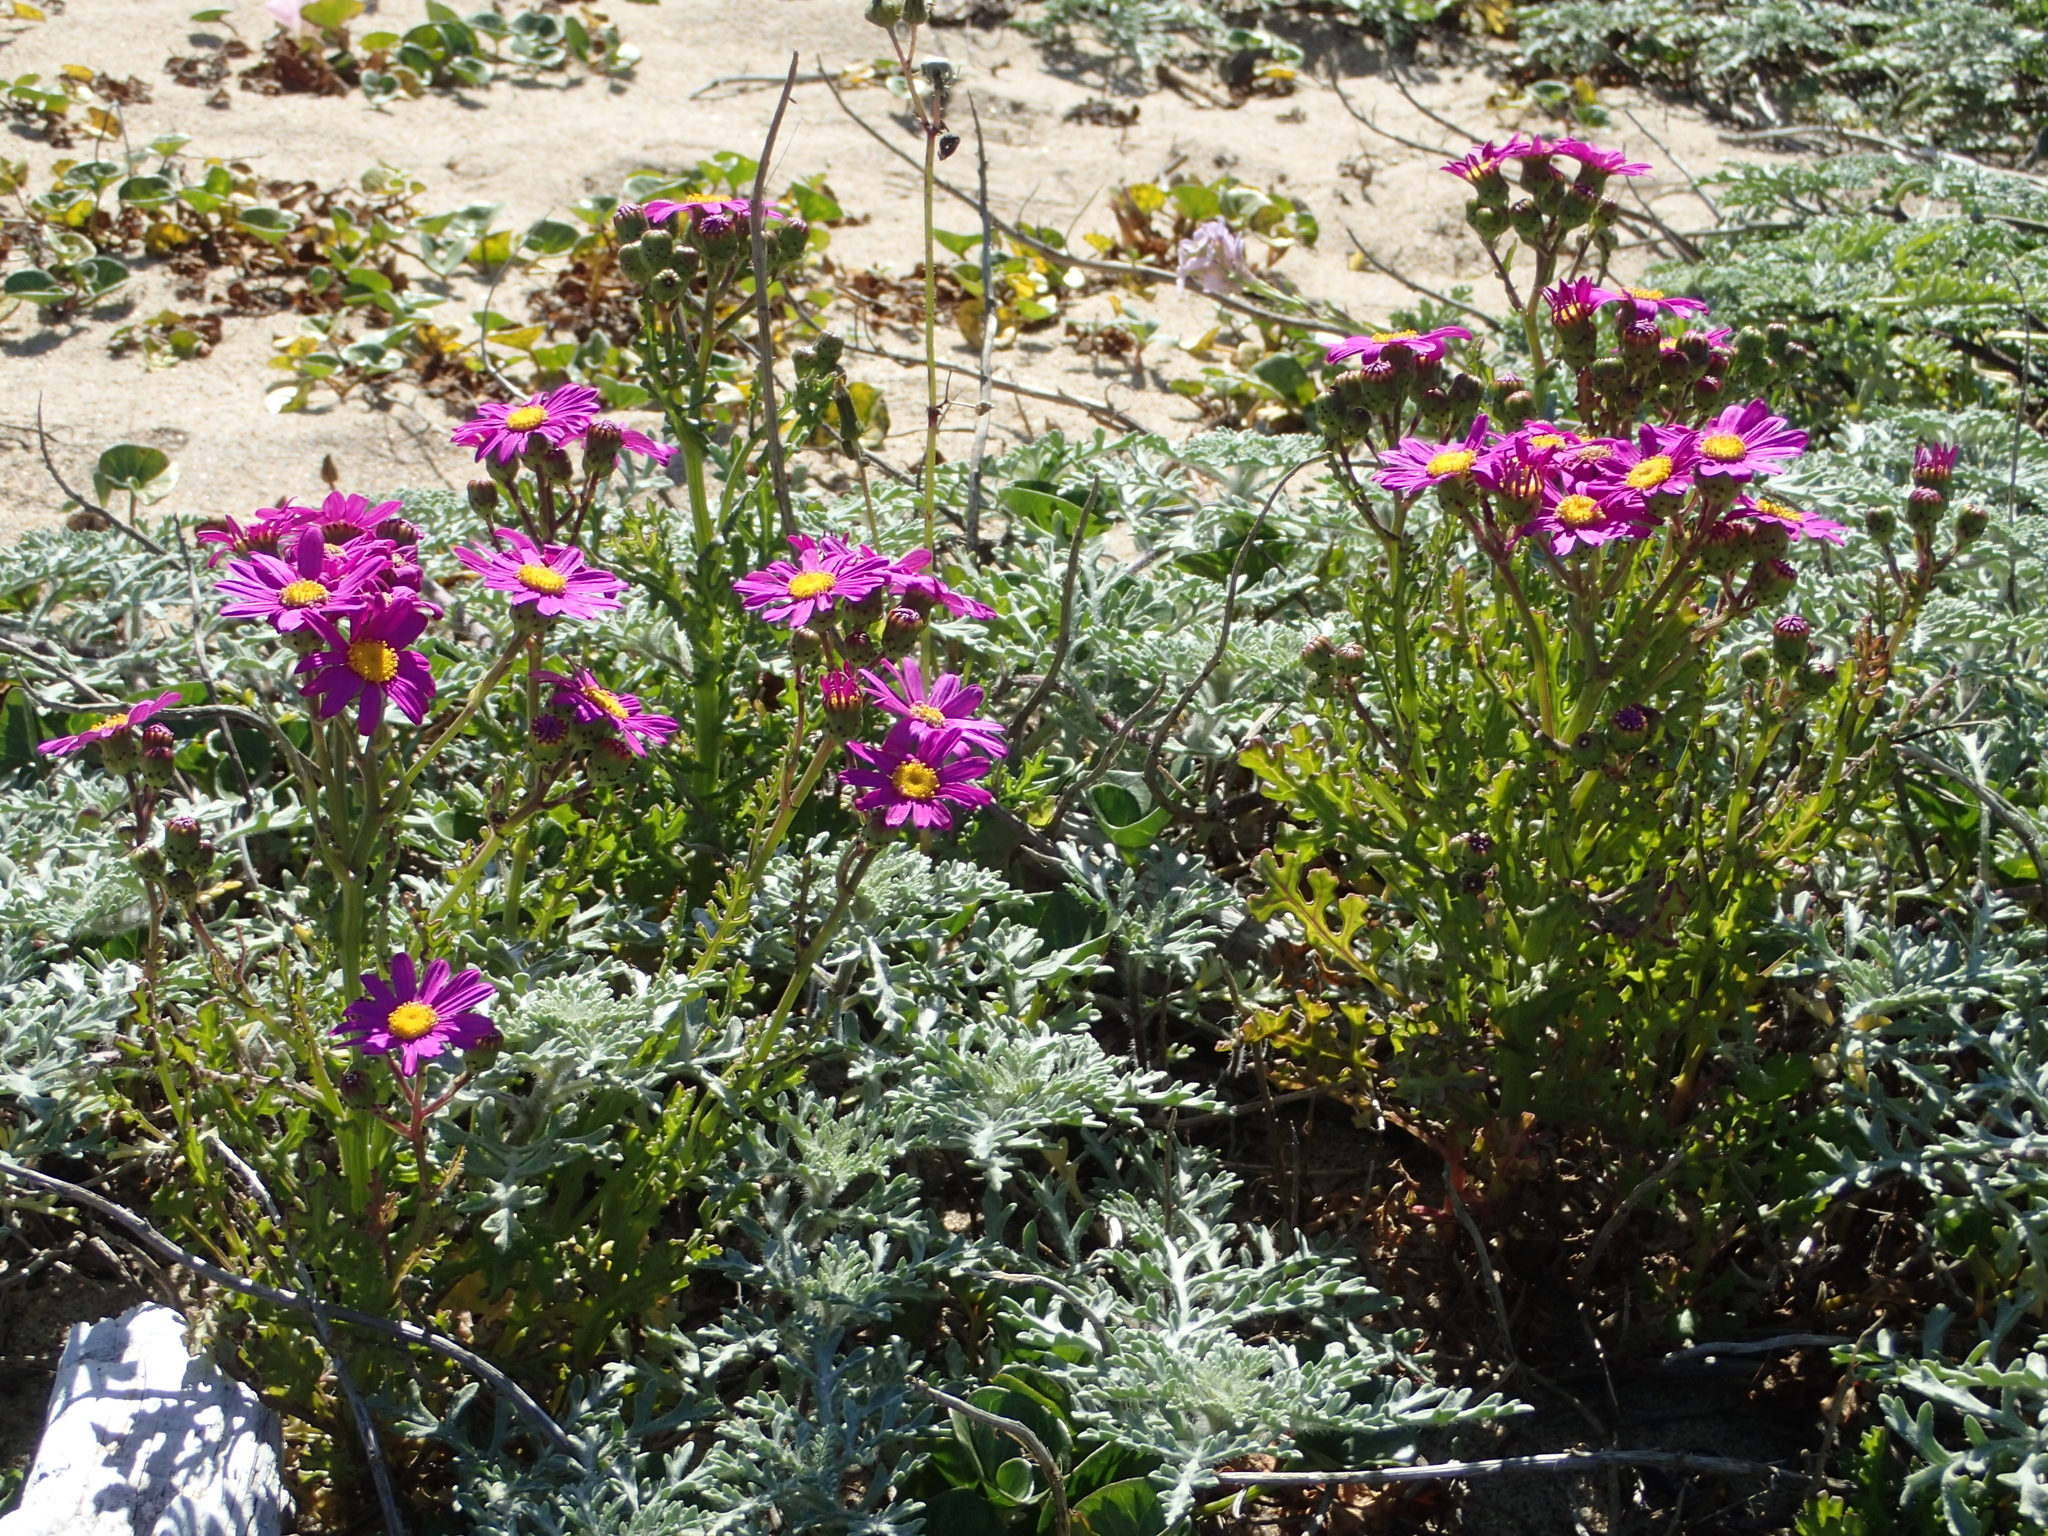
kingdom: Plantae
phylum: Tracheophyta
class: Magnoliopsida
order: Asterales
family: Asteraceae
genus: Senecio
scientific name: Senecio elegans
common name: Purple groundsel
